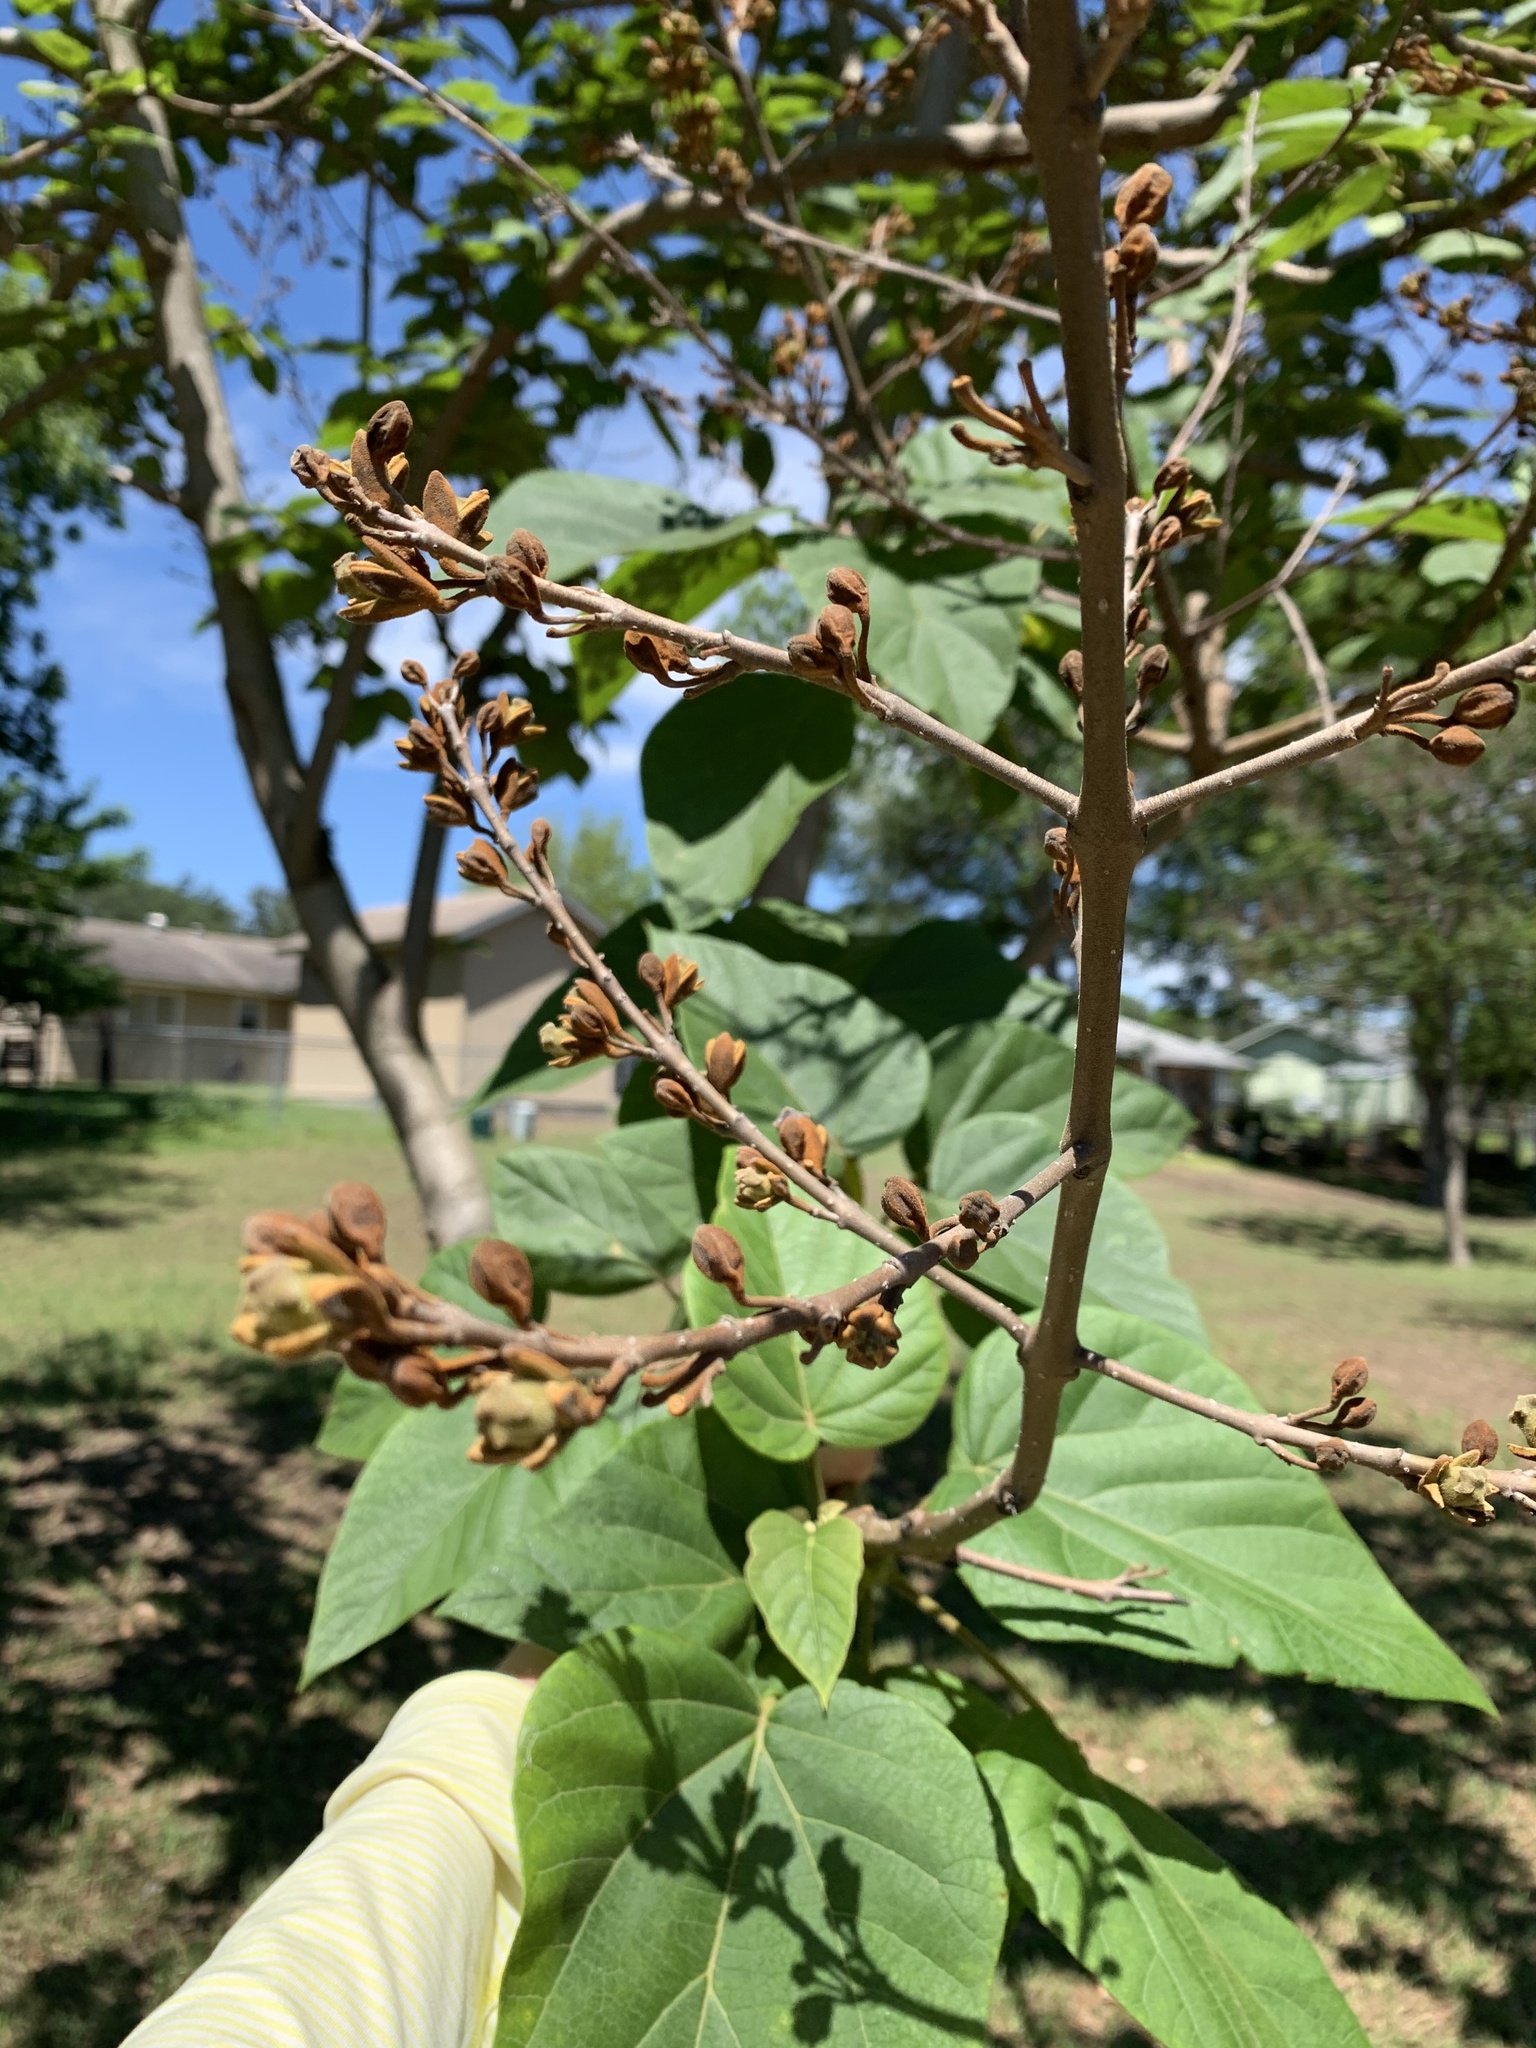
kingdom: Plantae
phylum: Tracheophyta
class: Magnoliopsida
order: Lamiales
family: Paulowniaceae
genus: Paulownia
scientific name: Paulownia tomentosa
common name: Foxglove-tree
